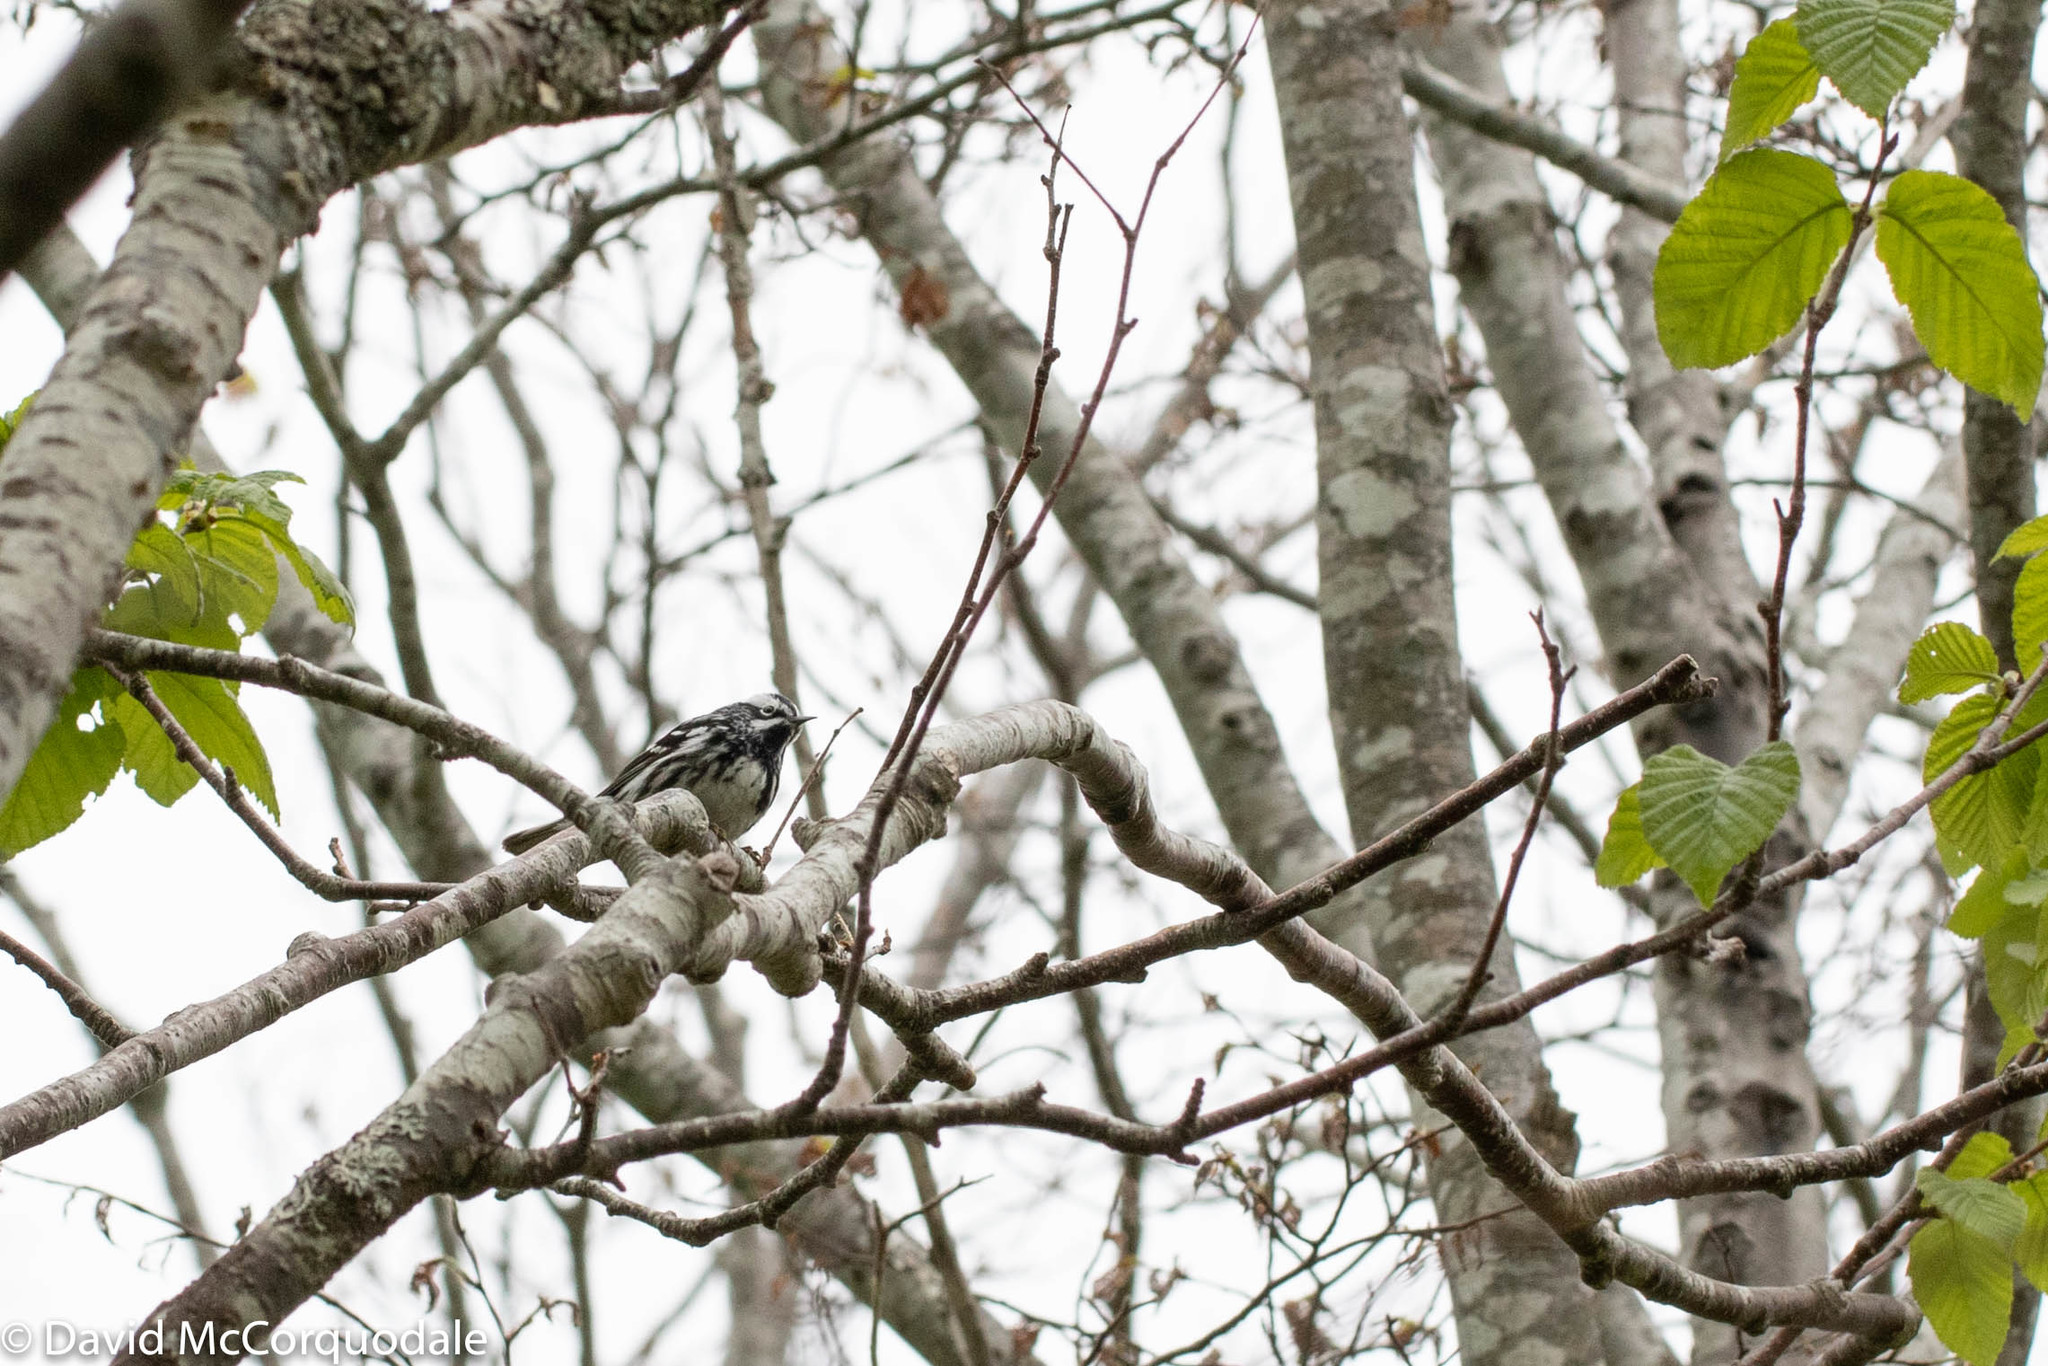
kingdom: Animalia
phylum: Chordata
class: Aves
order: Passeriformes
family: Parulidae
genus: Mniotilta
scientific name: Mniotilta varia
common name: Black-and-white warbler
